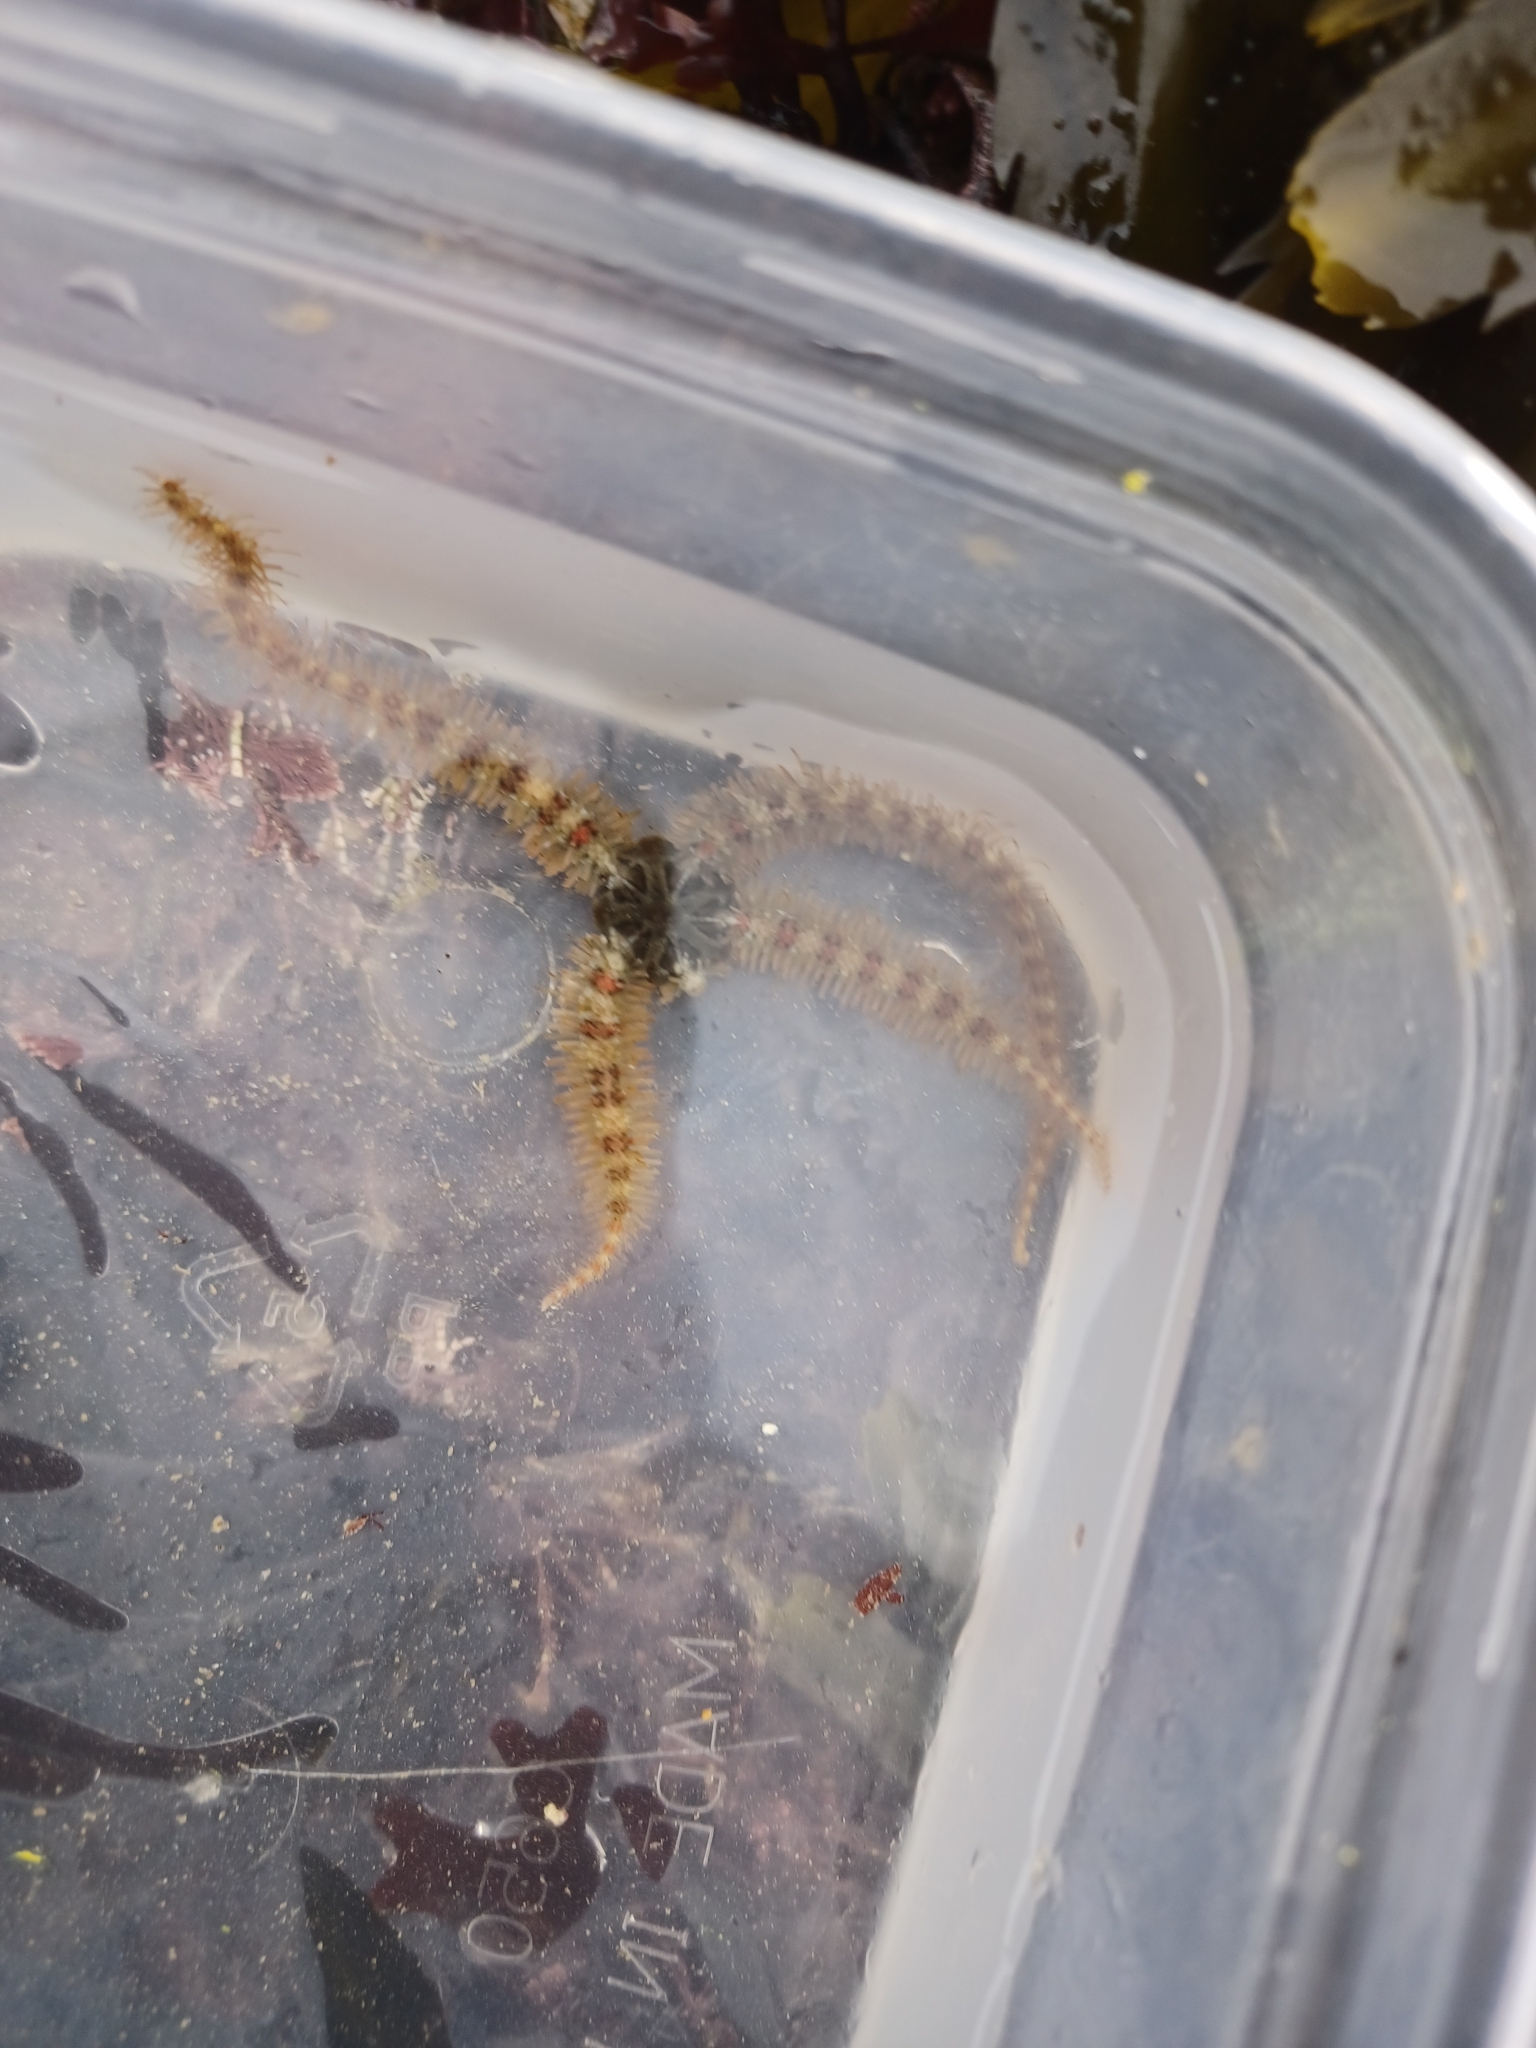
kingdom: Animalia
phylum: Echinodermata
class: Ophiuroidea
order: Amphilepidida
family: Ophiotrichidae
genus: Ophiothrix
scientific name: Ophiothrix fragilis
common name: Common brittlestar
